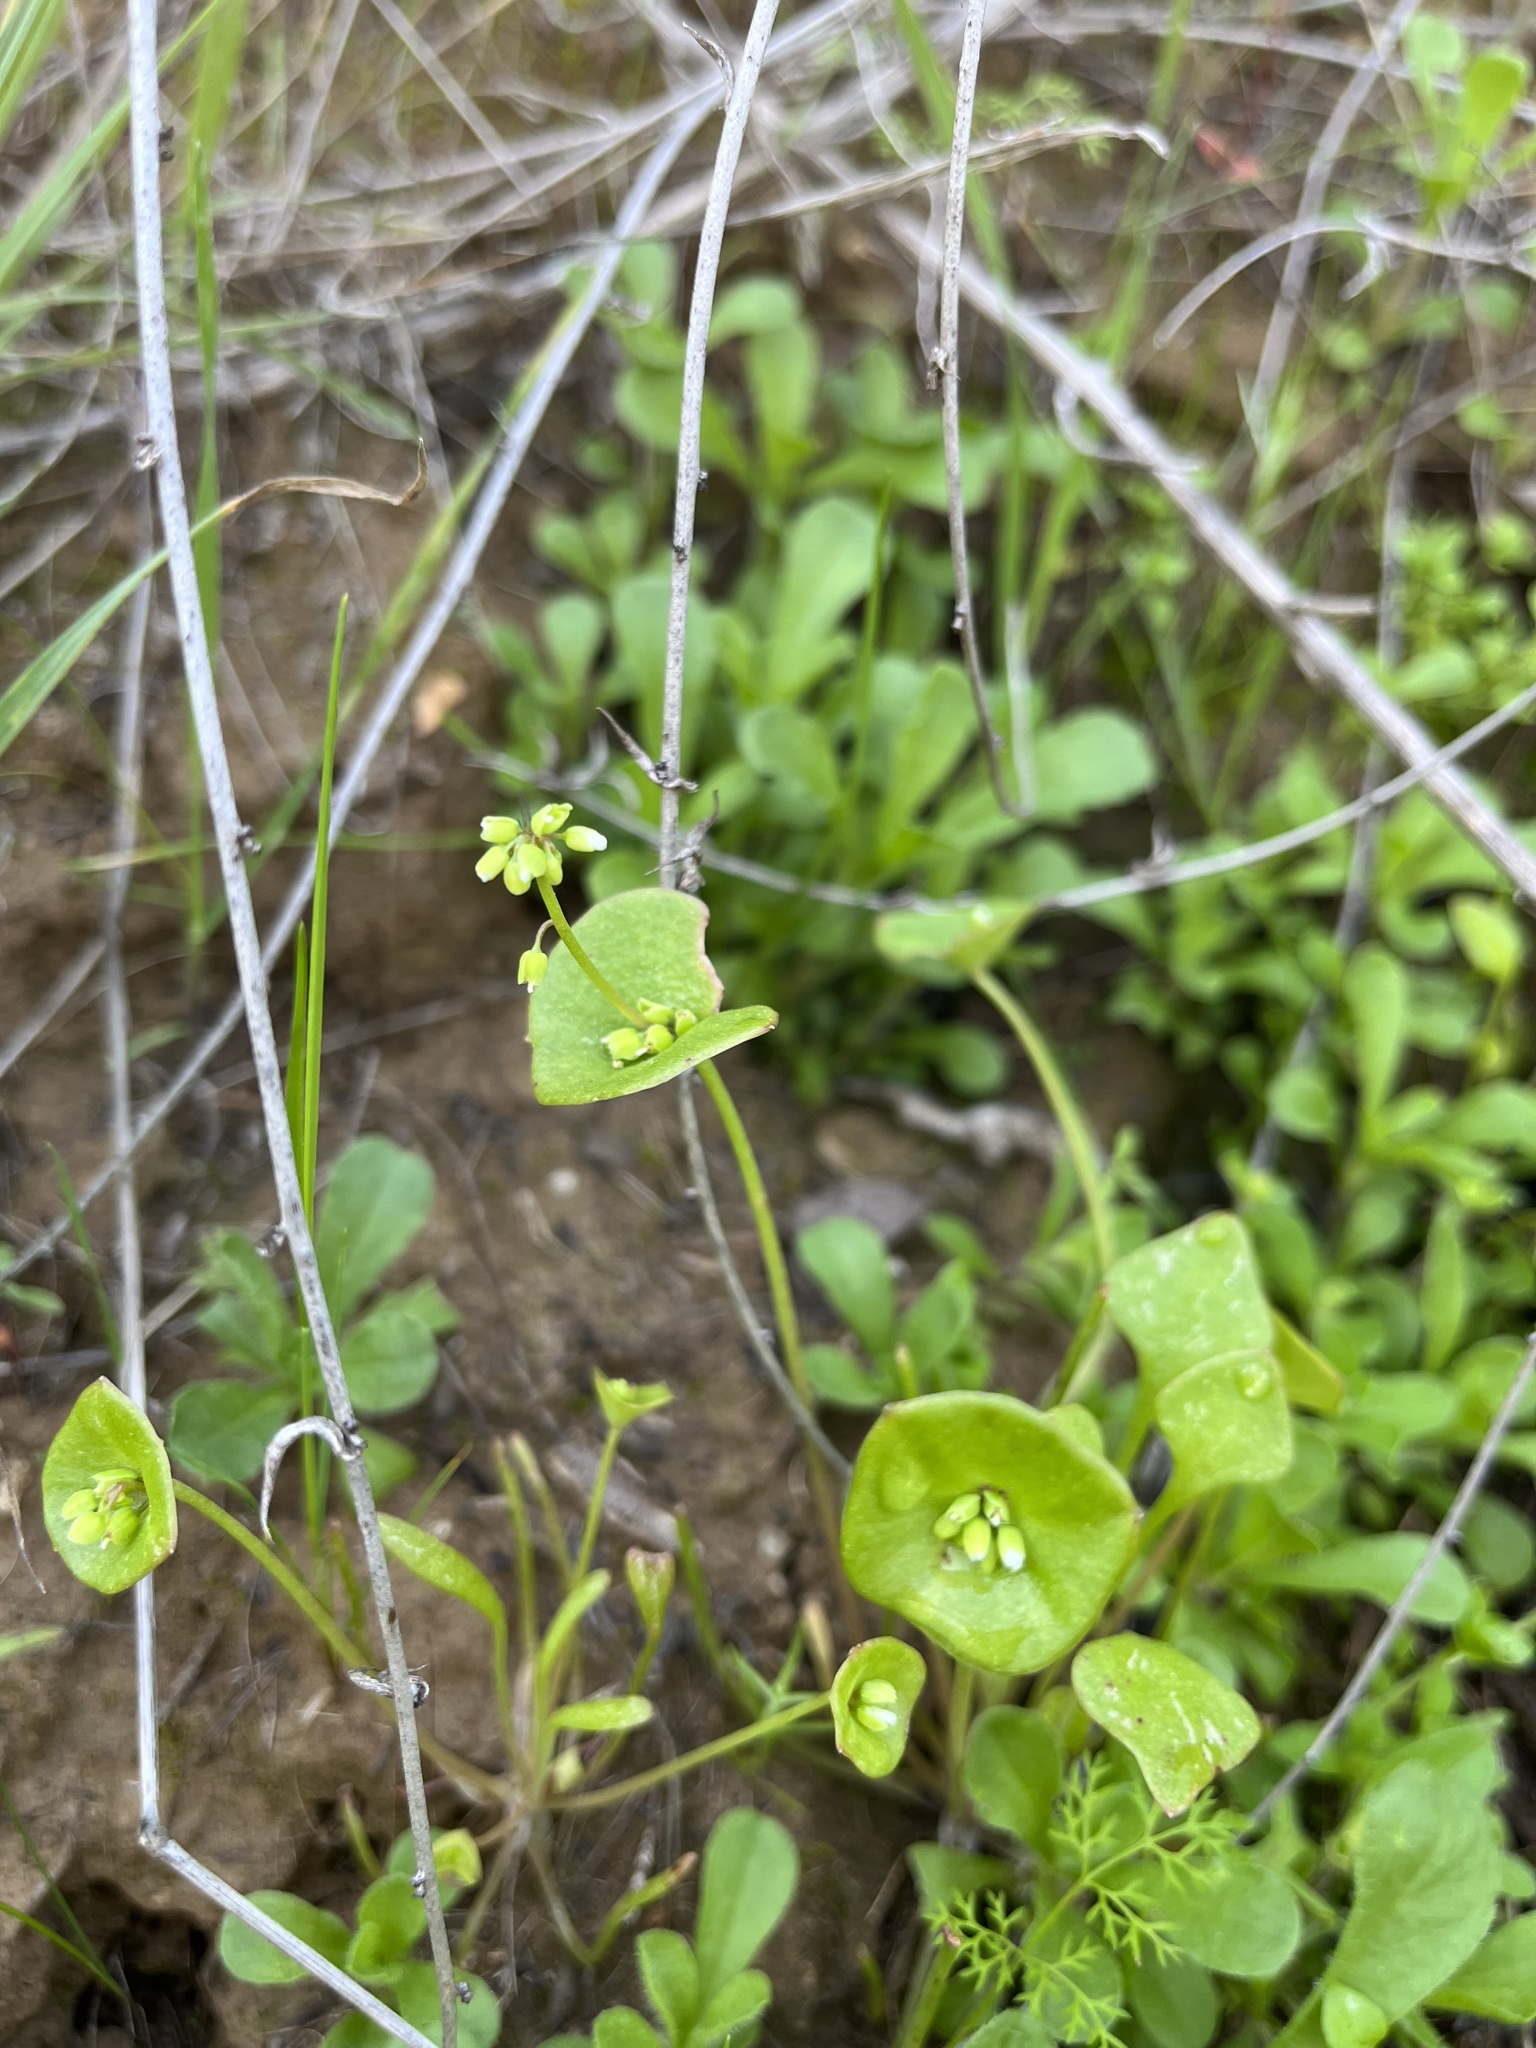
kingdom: Plantae
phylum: Tracheophyta
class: Magnoliopsida
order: Caryophyllales
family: Montiaceae
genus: Claytonia
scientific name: Claytonia perfoliata
